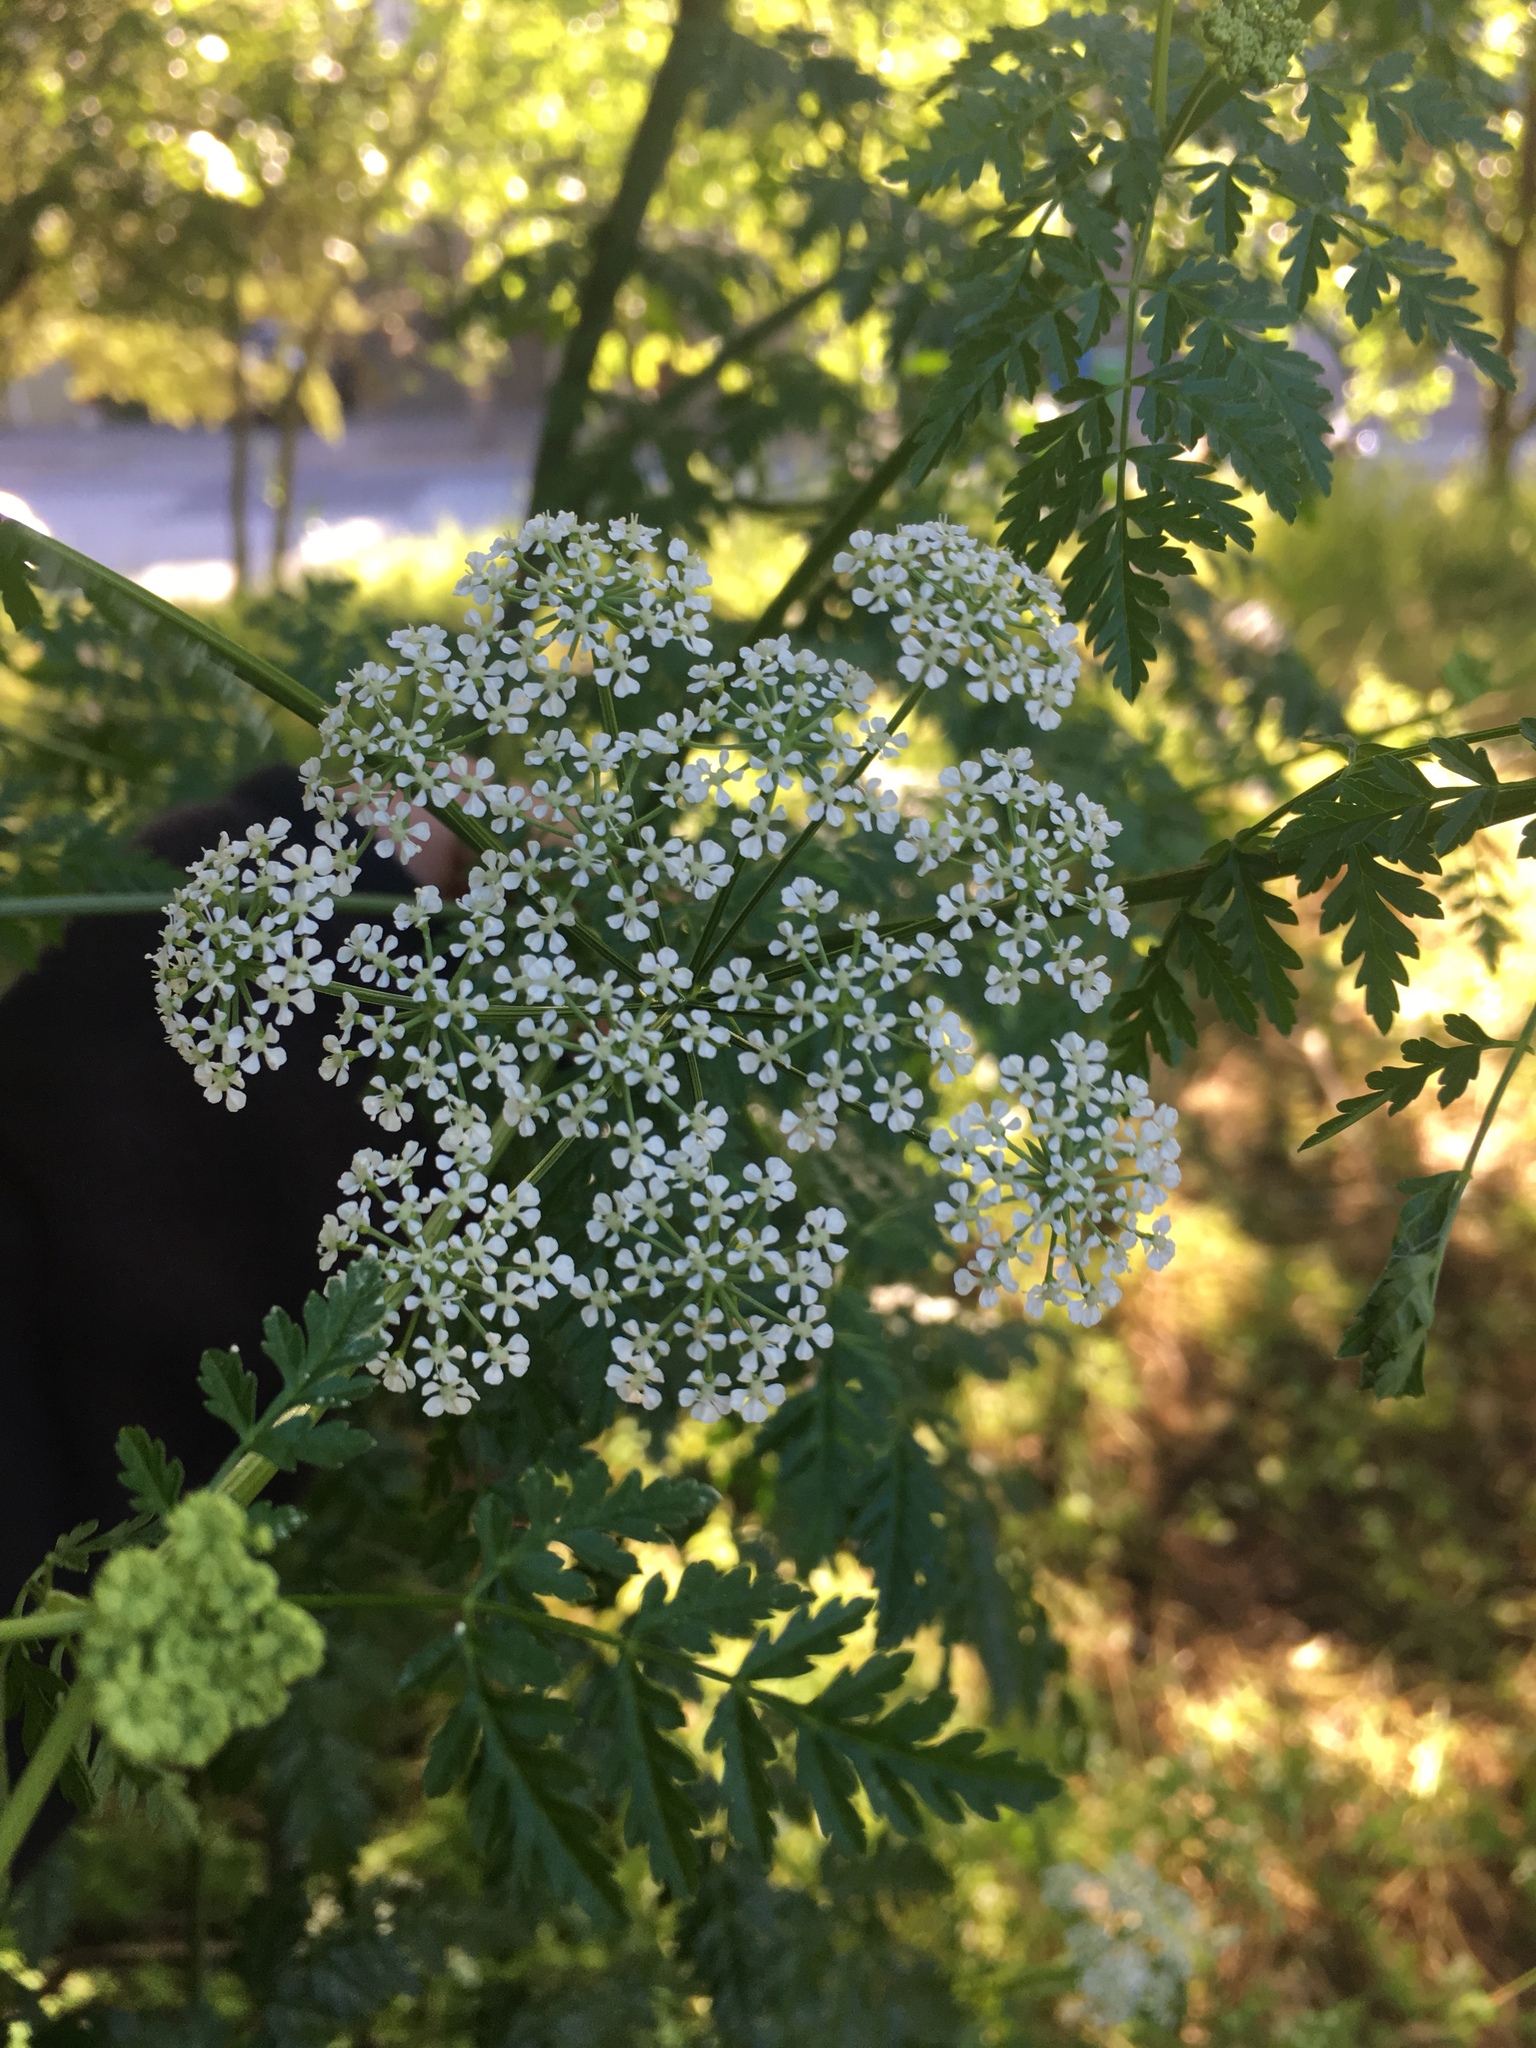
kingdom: Plantae
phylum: Tracheophyta
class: Magnoliopsida
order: Apiales
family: Apiaceae
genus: Conium
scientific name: Conium maculatum
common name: Hemlock
